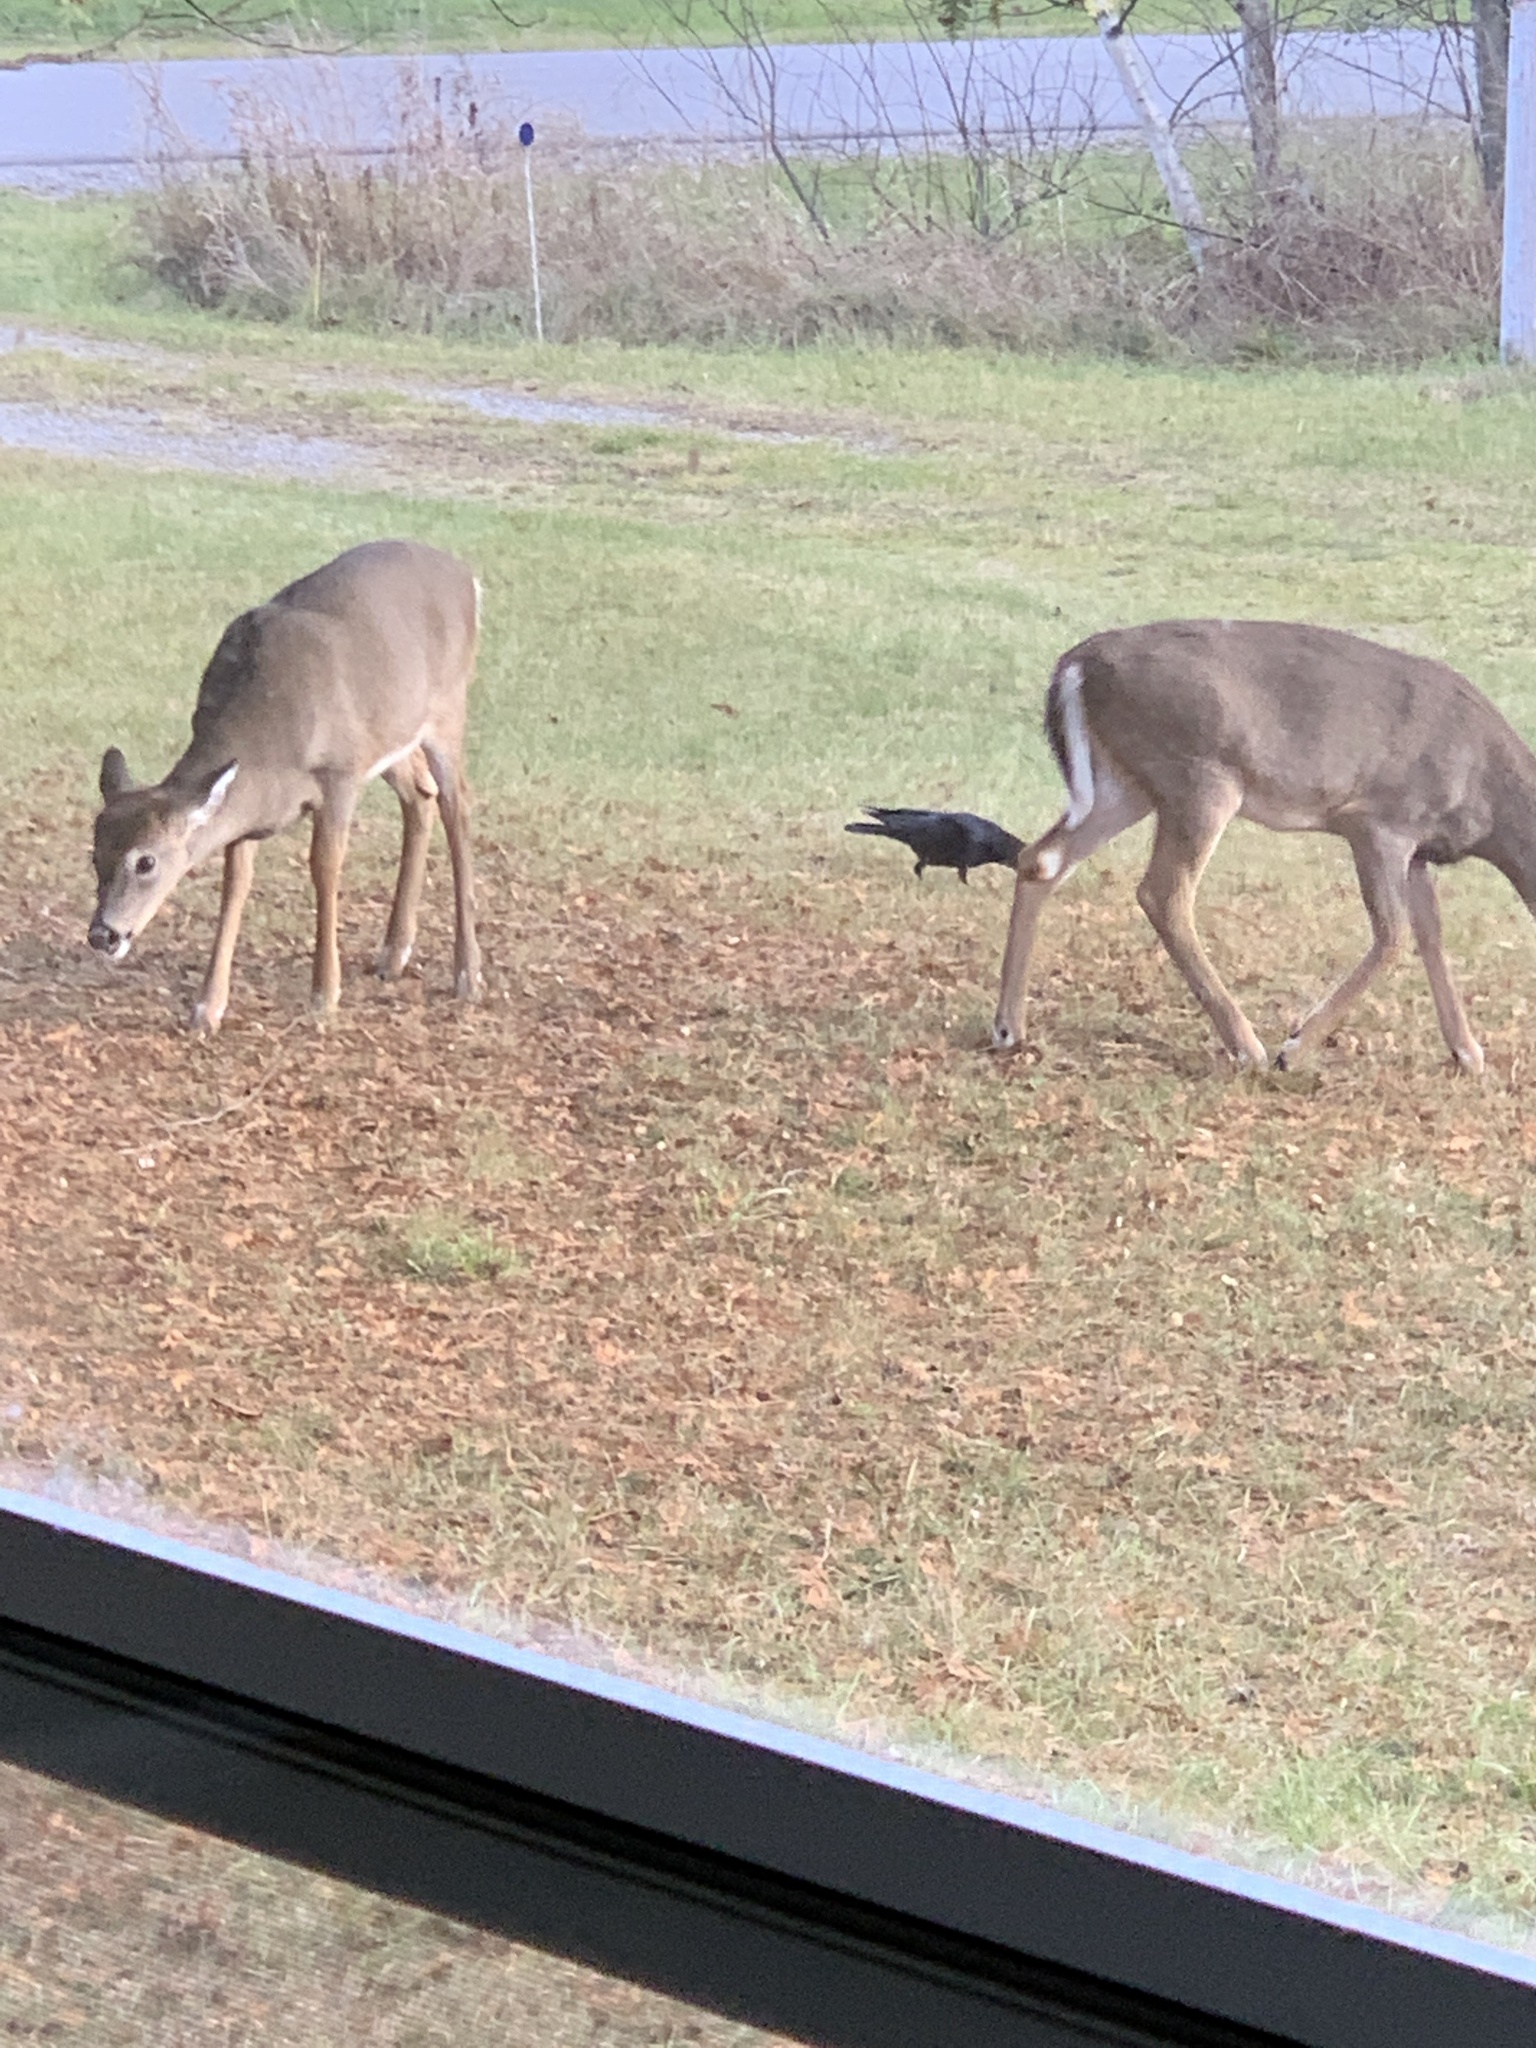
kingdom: Animalia
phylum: Chordata
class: Aves
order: Passeriformes
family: Corvidae
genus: Corvus
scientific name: Corvus brachyrhynchos
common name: American crow
